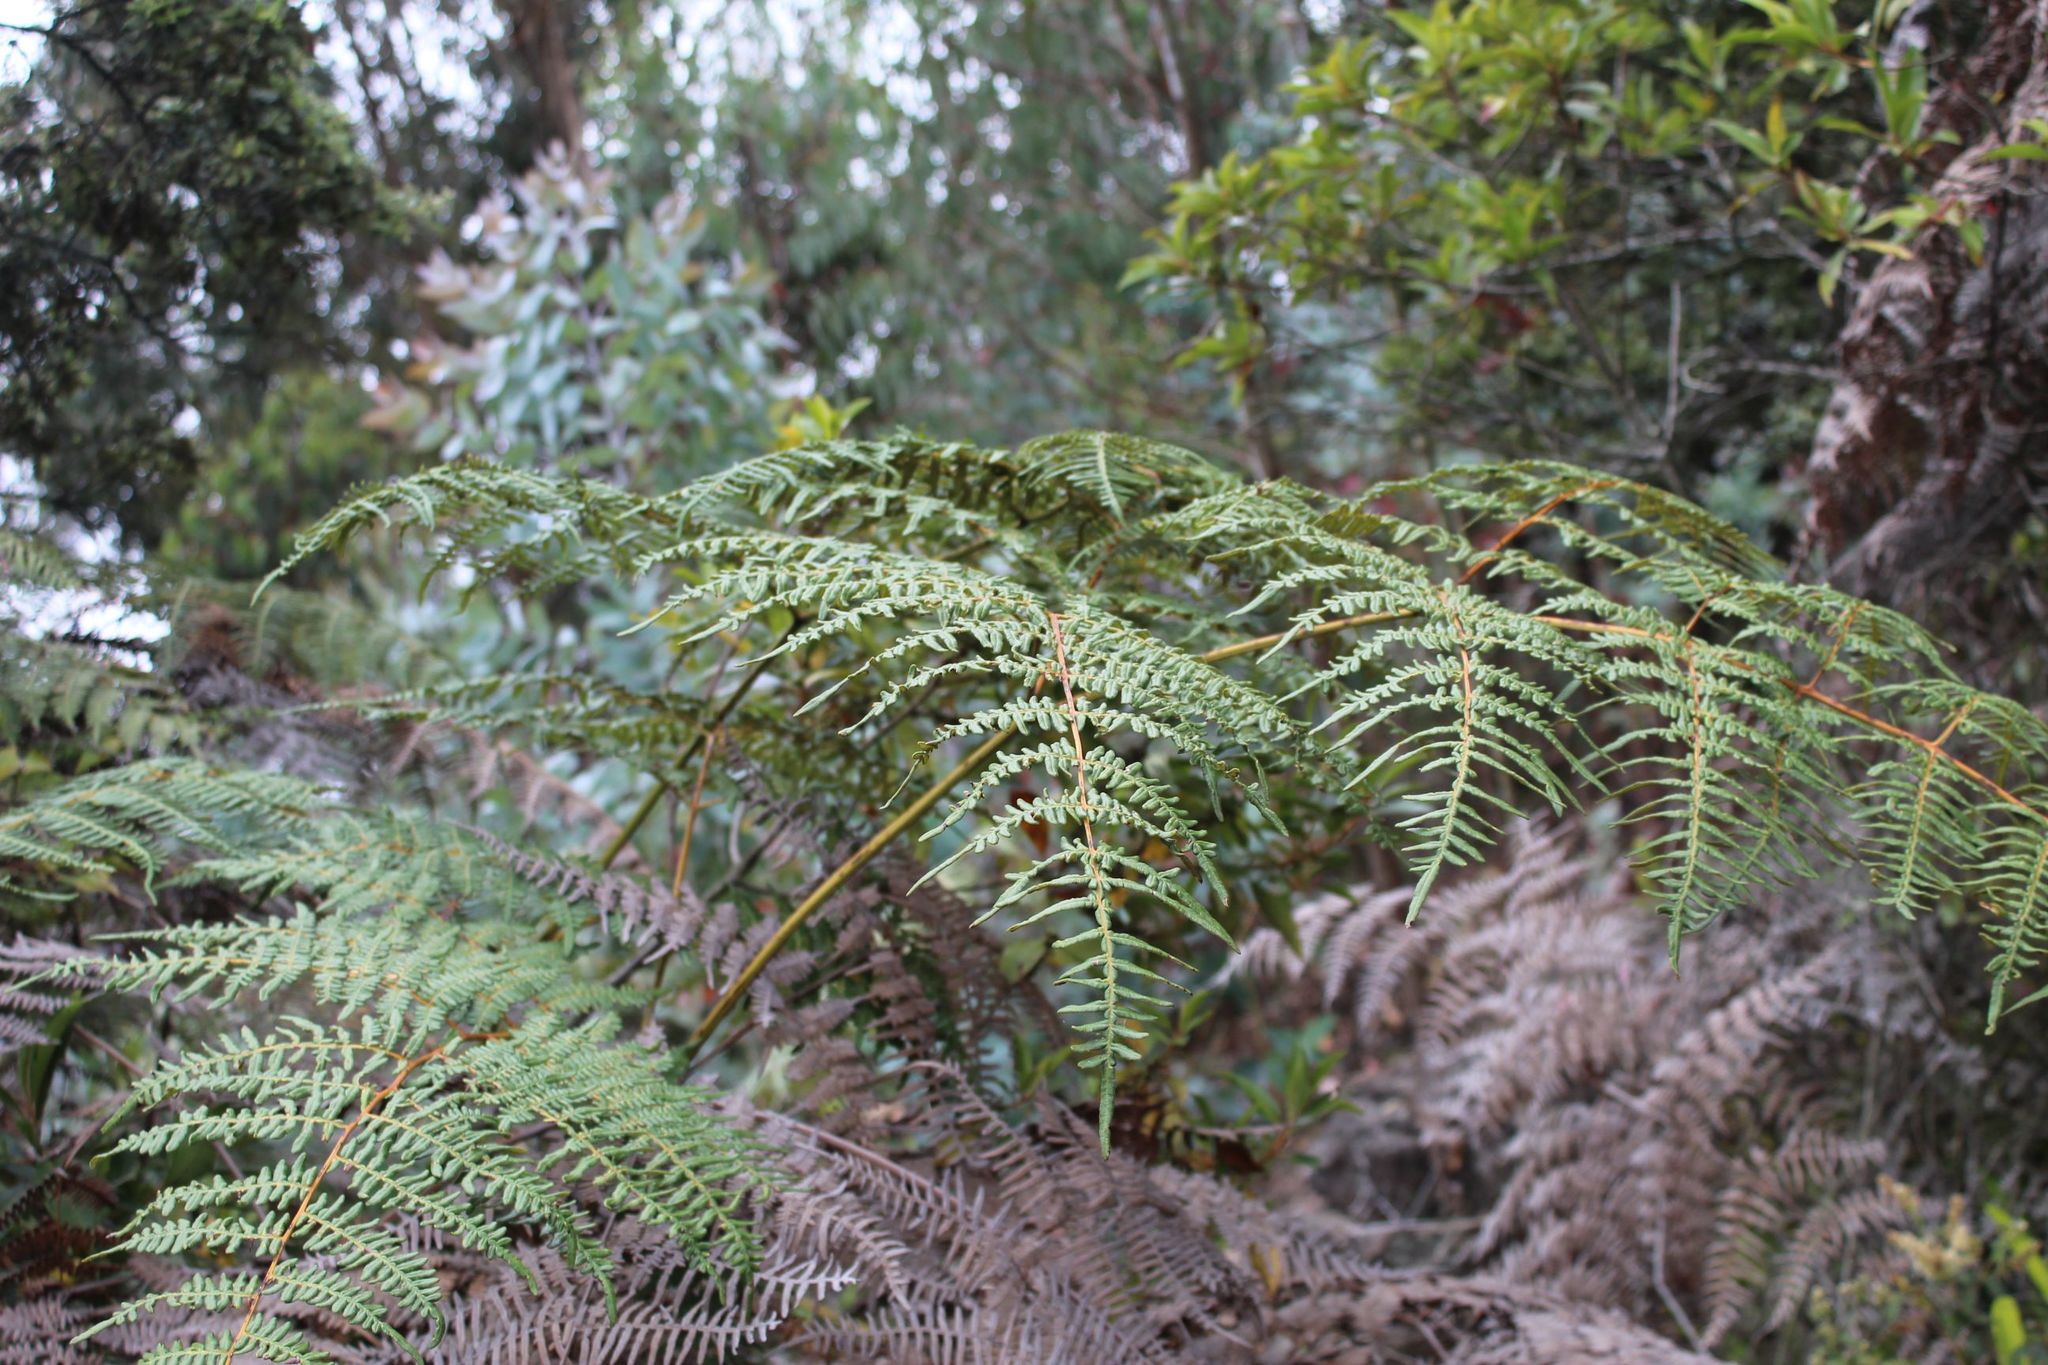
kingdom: Plantae
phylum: Tracheophyta
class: Polypodiopsida
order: Polypodiales
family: Dennstaedtiaceae
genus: Pteridium
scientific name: Pteridium esculentum
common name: Bracken fern
